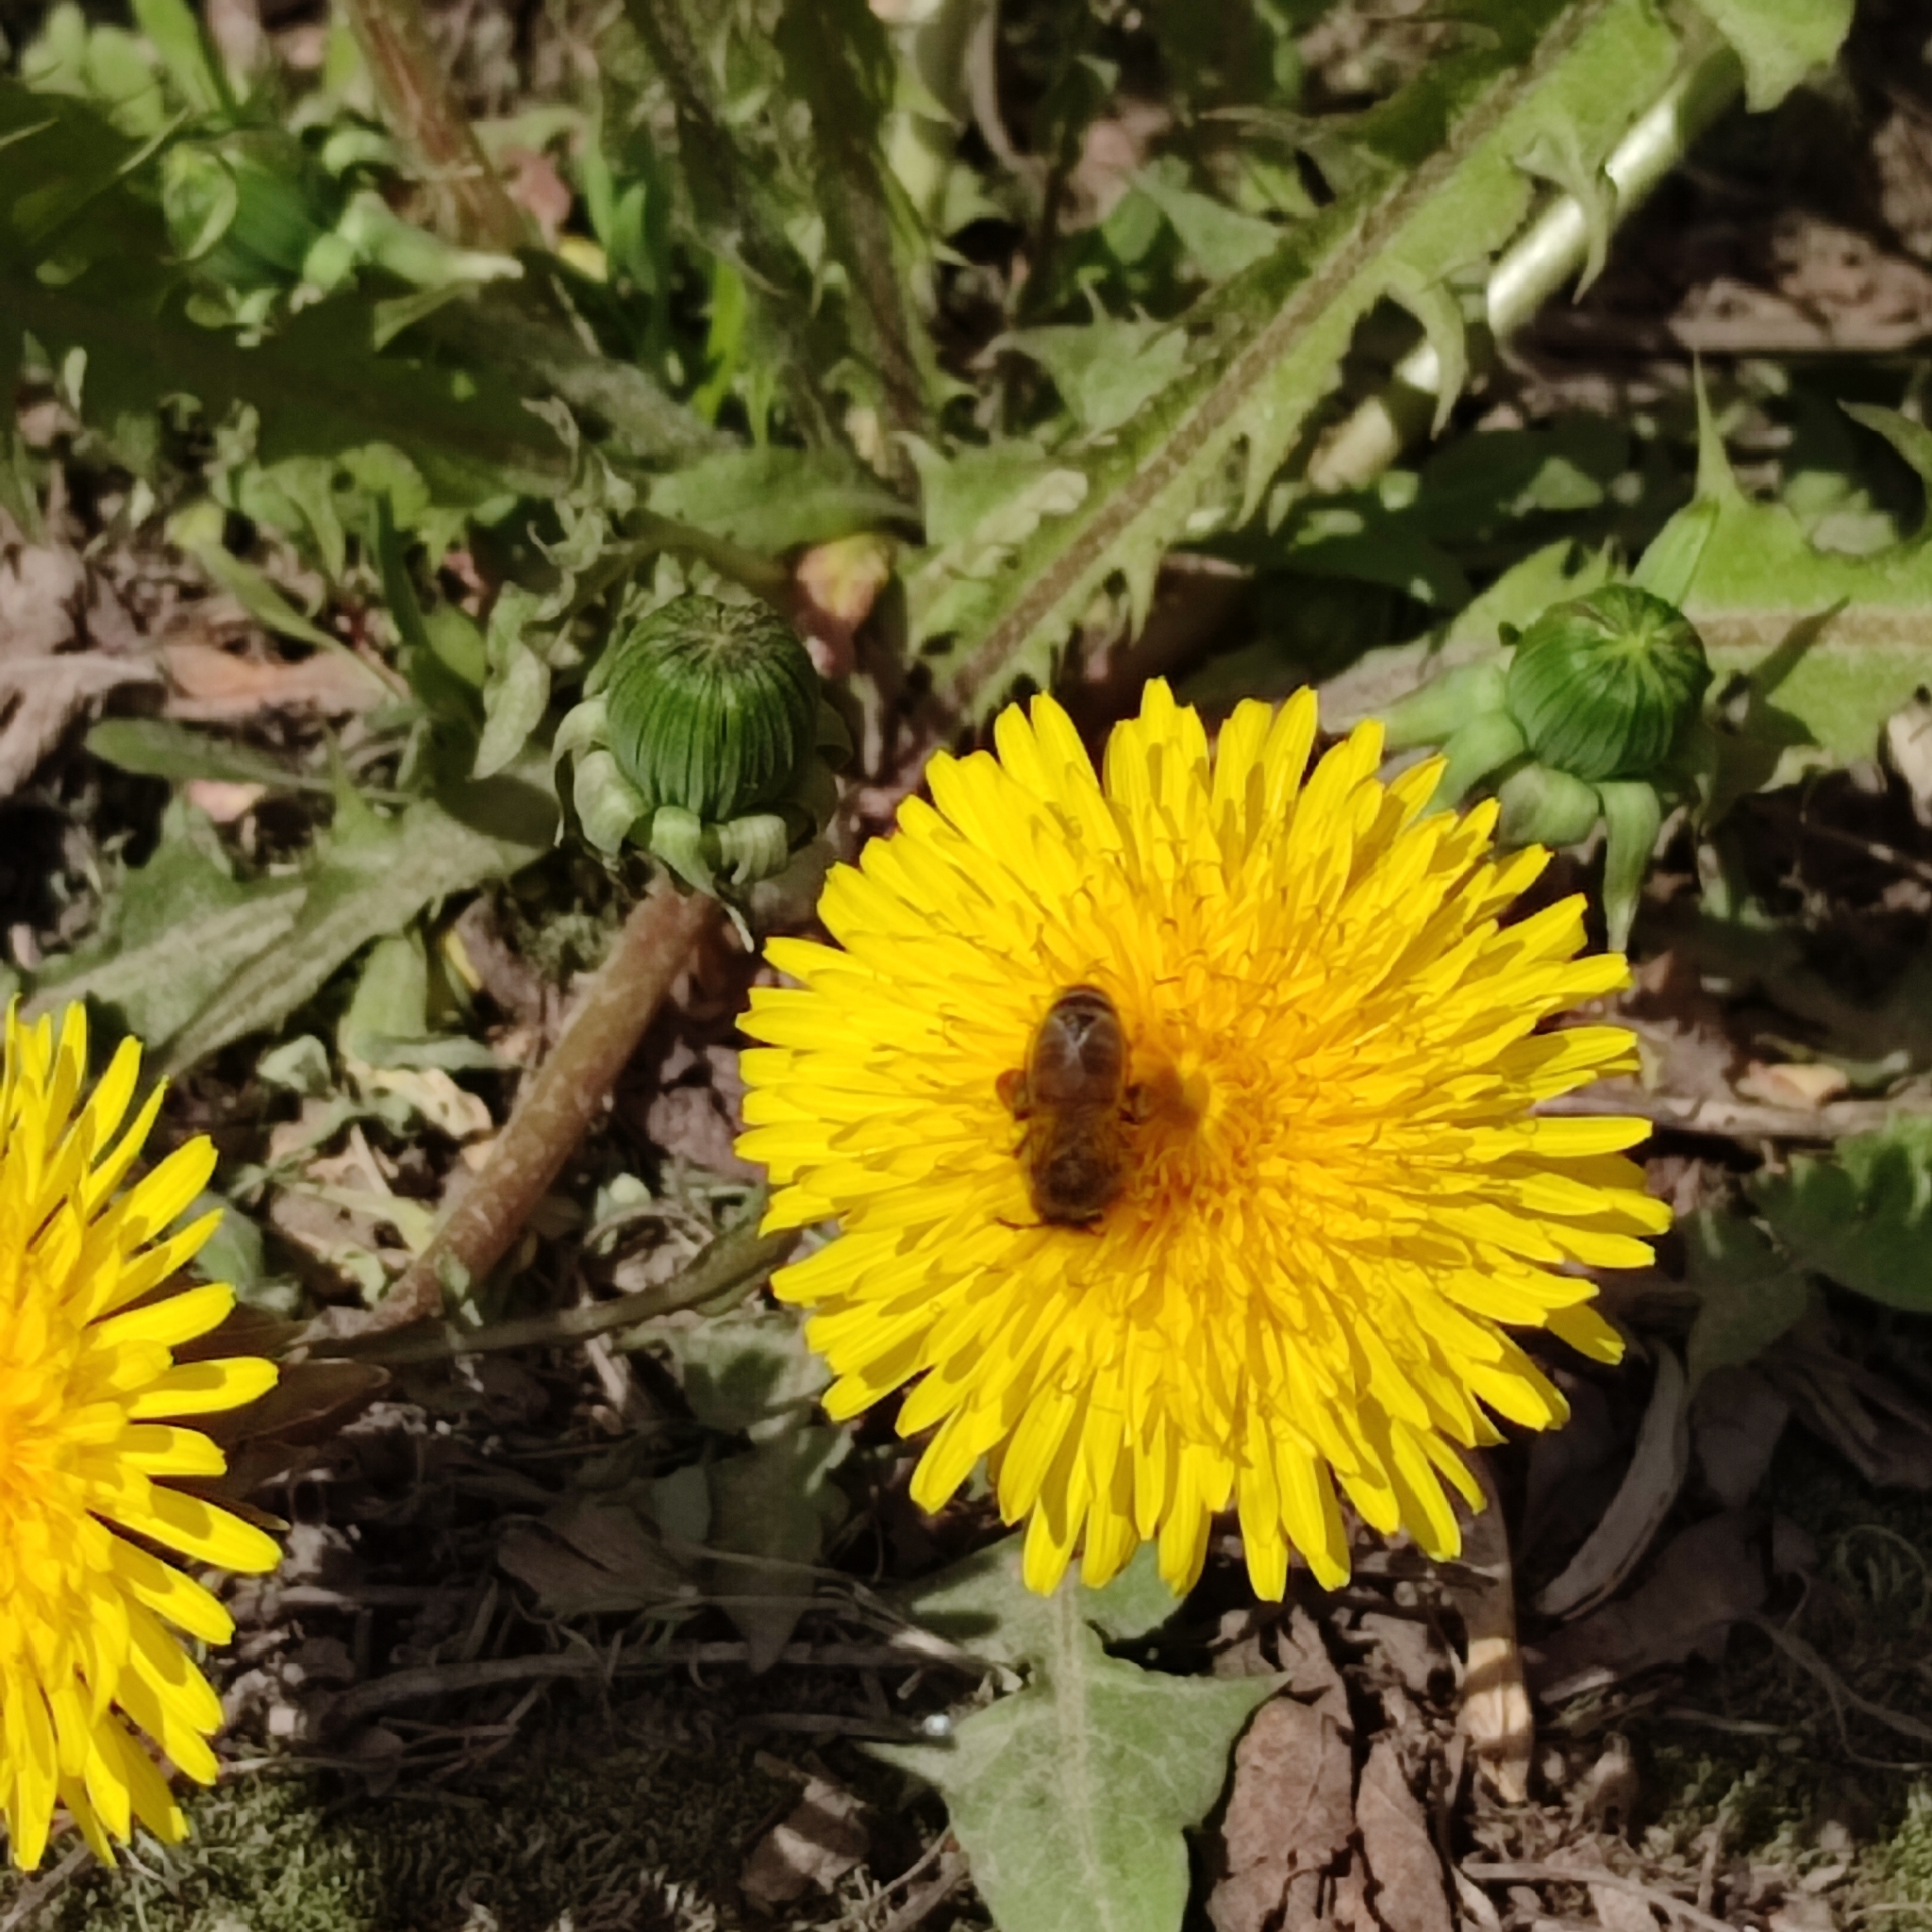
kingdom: Animalia
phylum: Arthropoda
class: Insecta
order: Hymenoptera
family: Apidae
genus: Apis
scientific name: Apis mellifera
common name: Honey bee
